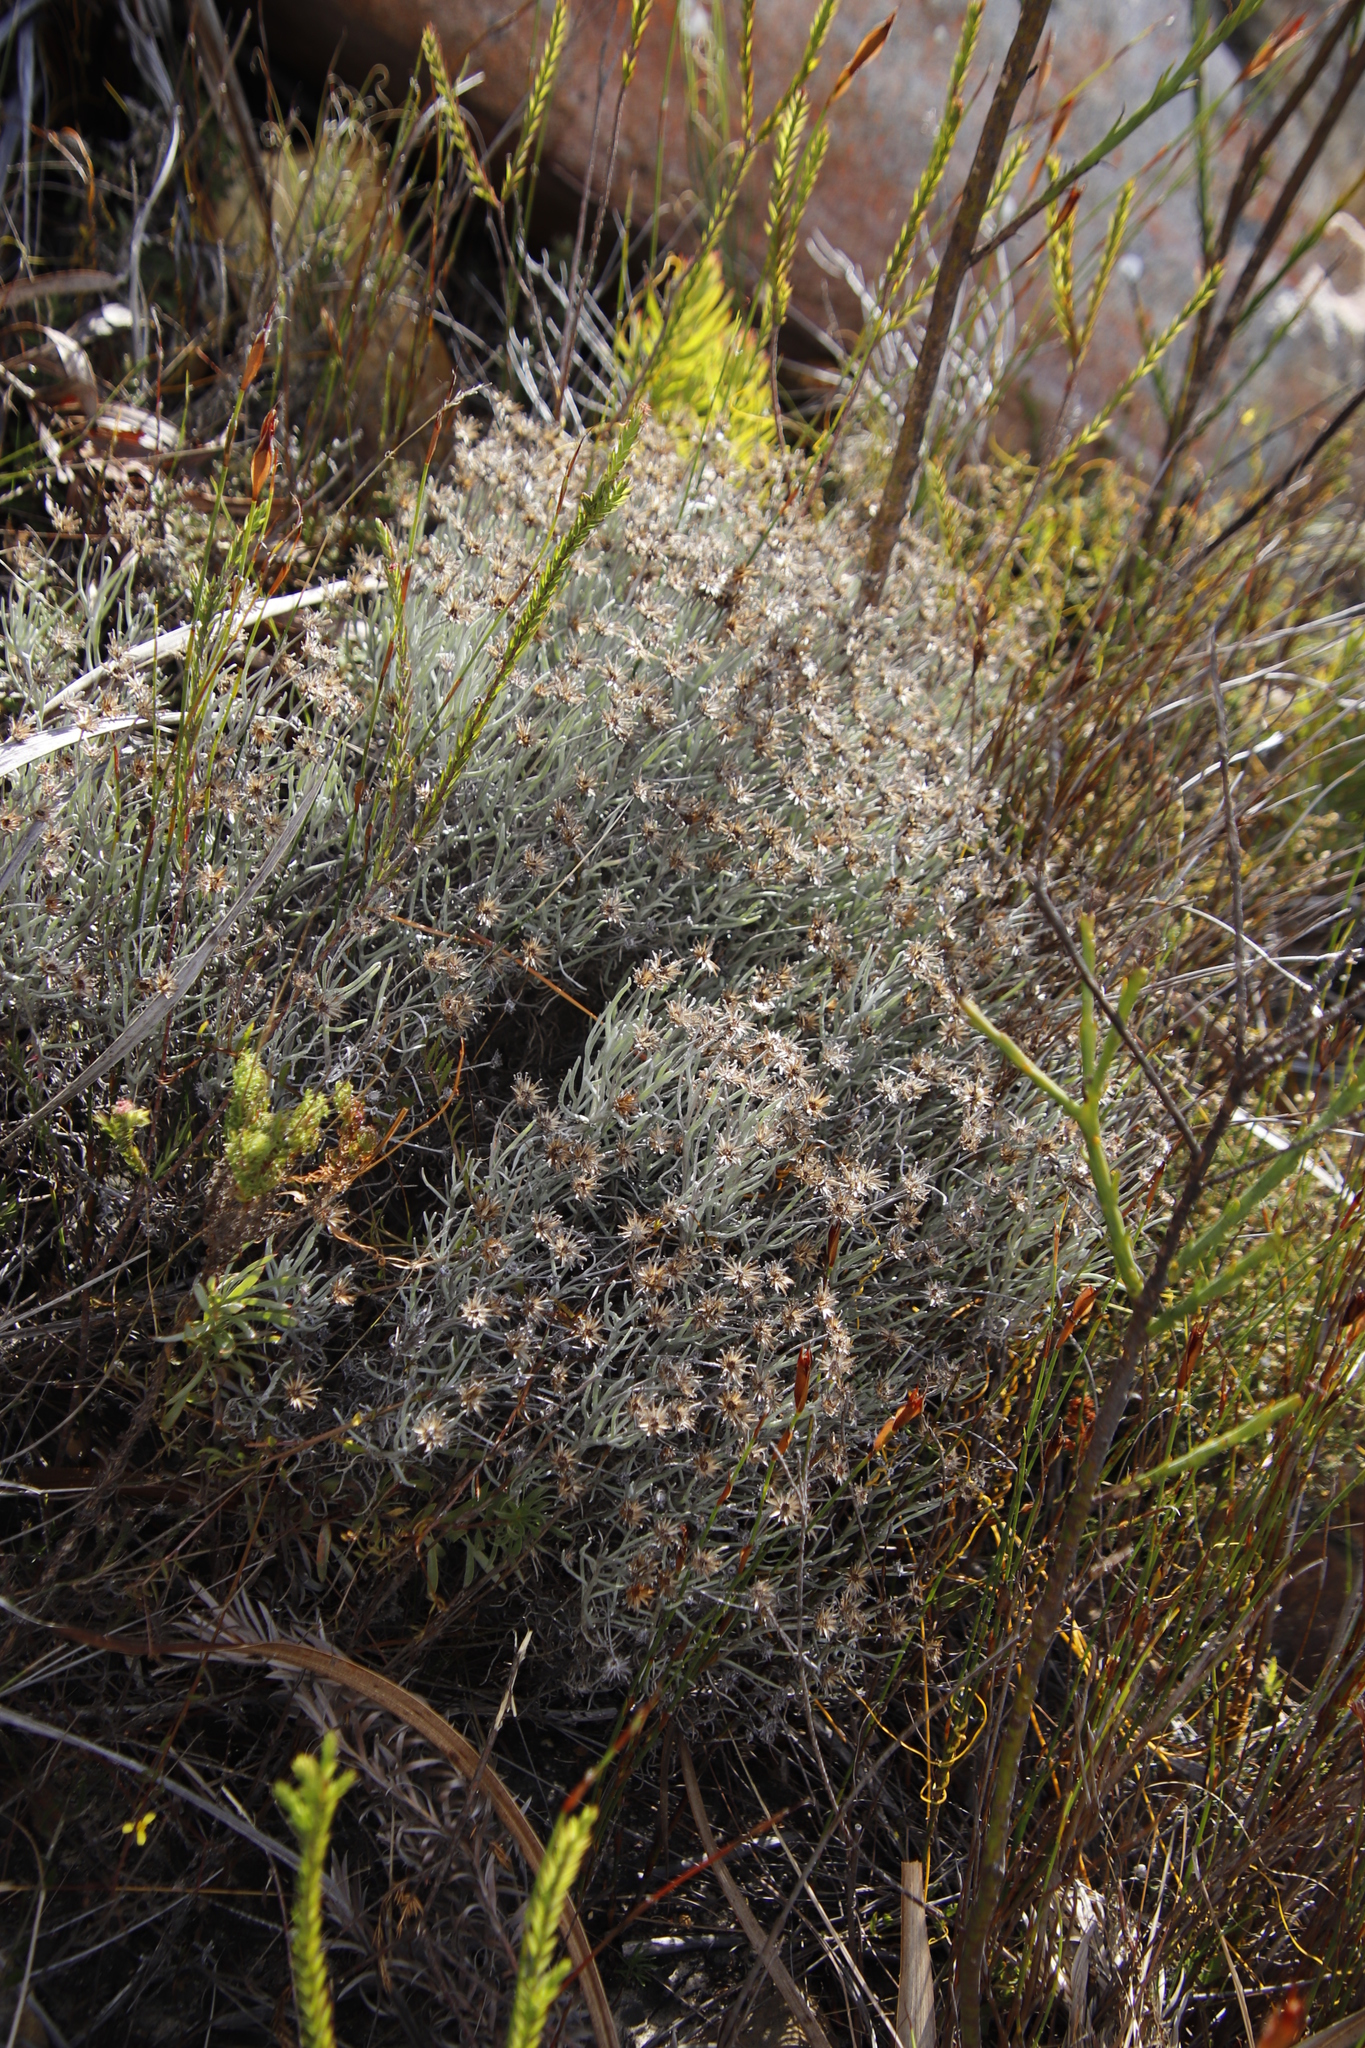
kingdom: Plantae
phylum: Tracheophyta
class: Magnoliopsida
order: Asterales
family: Asteraceae
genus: Syncarpha
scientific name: Syncarpha gnaphaloides
